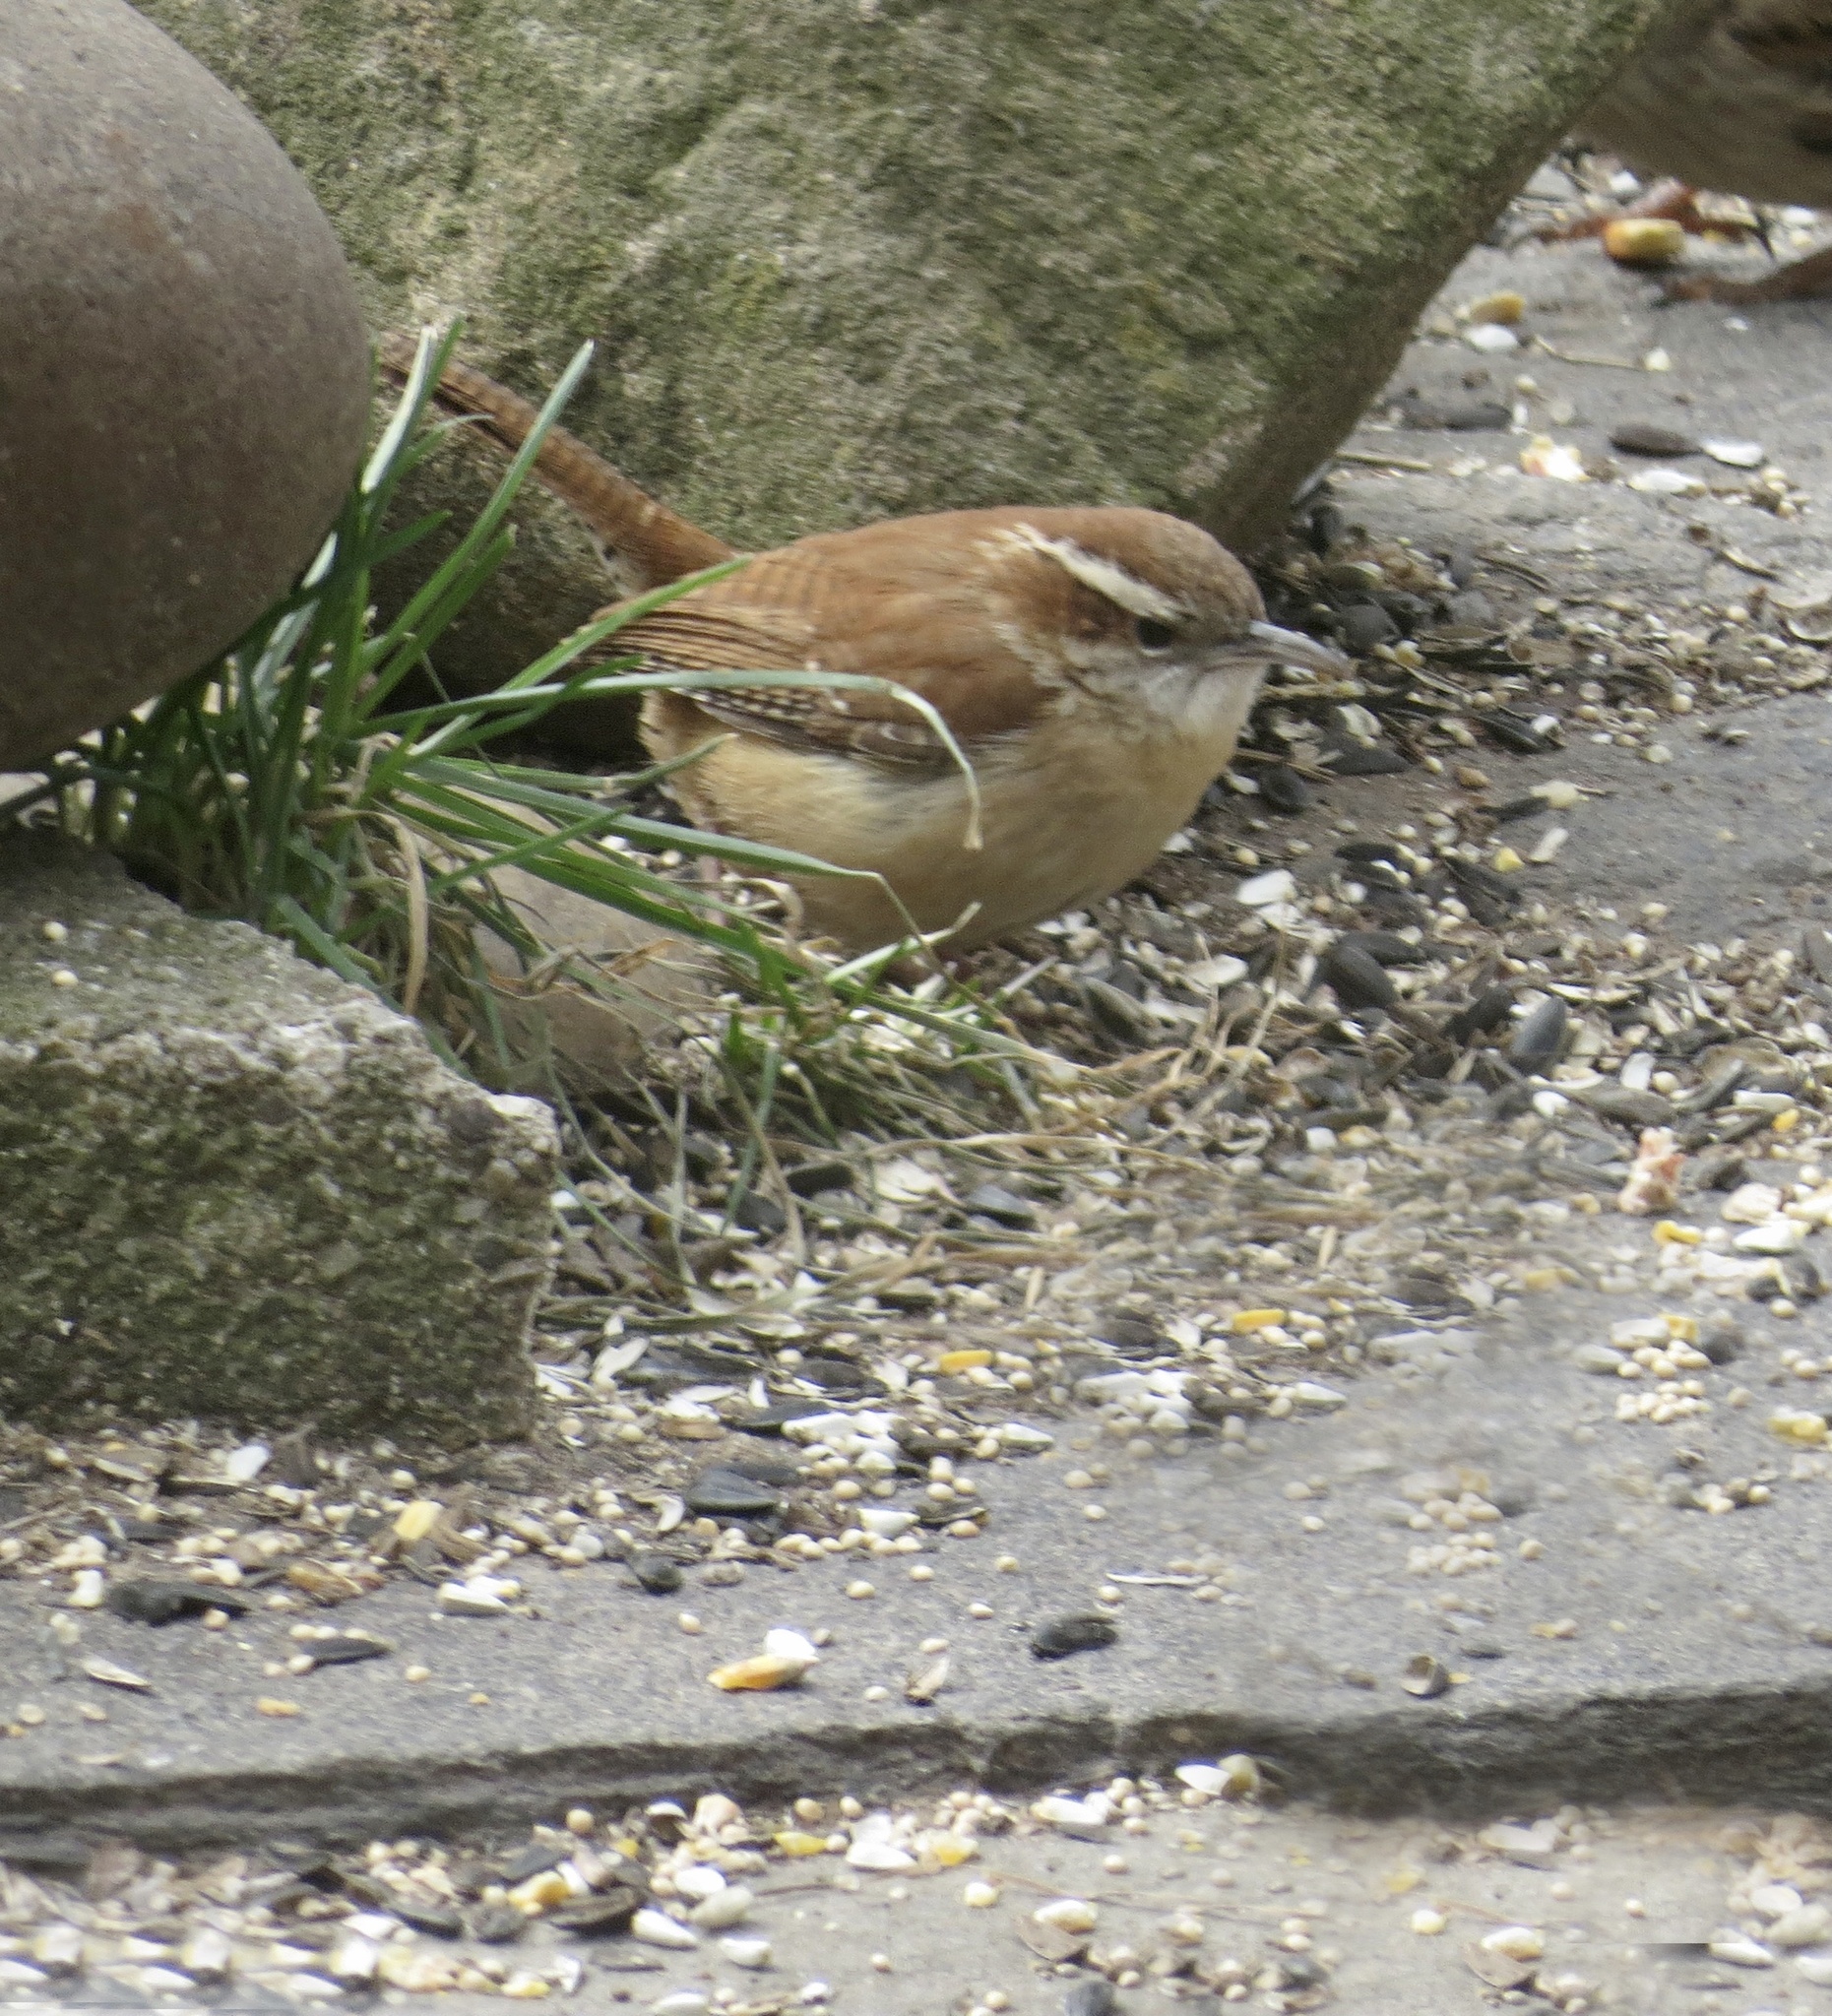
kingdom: Animalia
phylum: Chordata
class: Aves
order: Passeriformes
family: Troglodytidae
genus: Thryothorus
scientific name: Thryothorus ludovicianus
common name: Carolina wren
